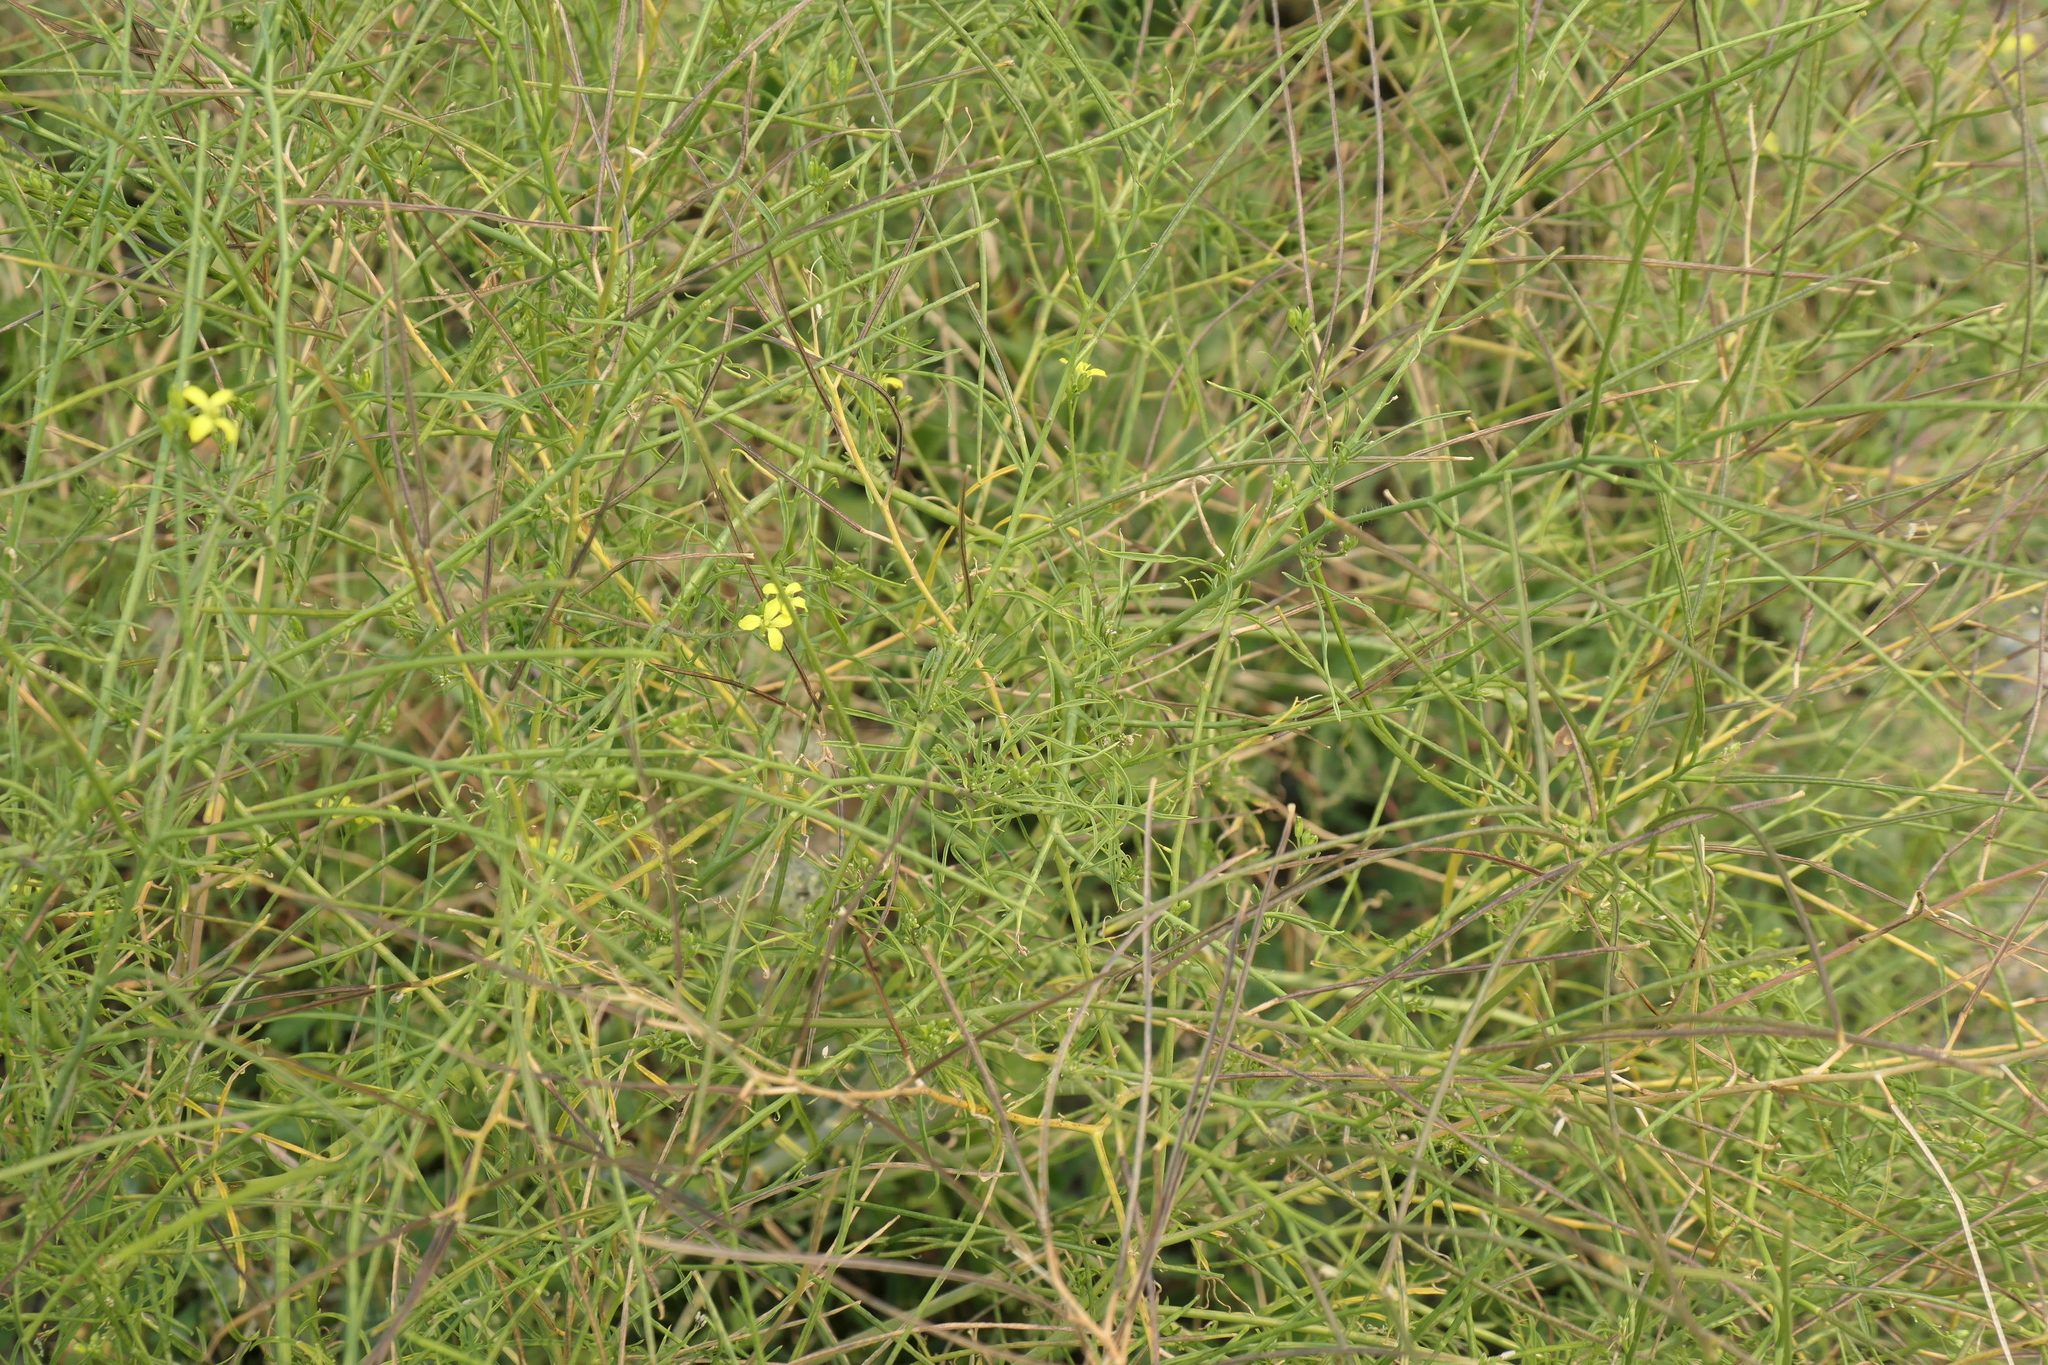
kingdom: Plantae
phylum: Tracheophyta
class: Magnoliopsida
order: Brassicales
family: Brassicaceae
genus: Sisymbrium
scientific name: Sisymbrium altissimum
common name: Tall rocket
